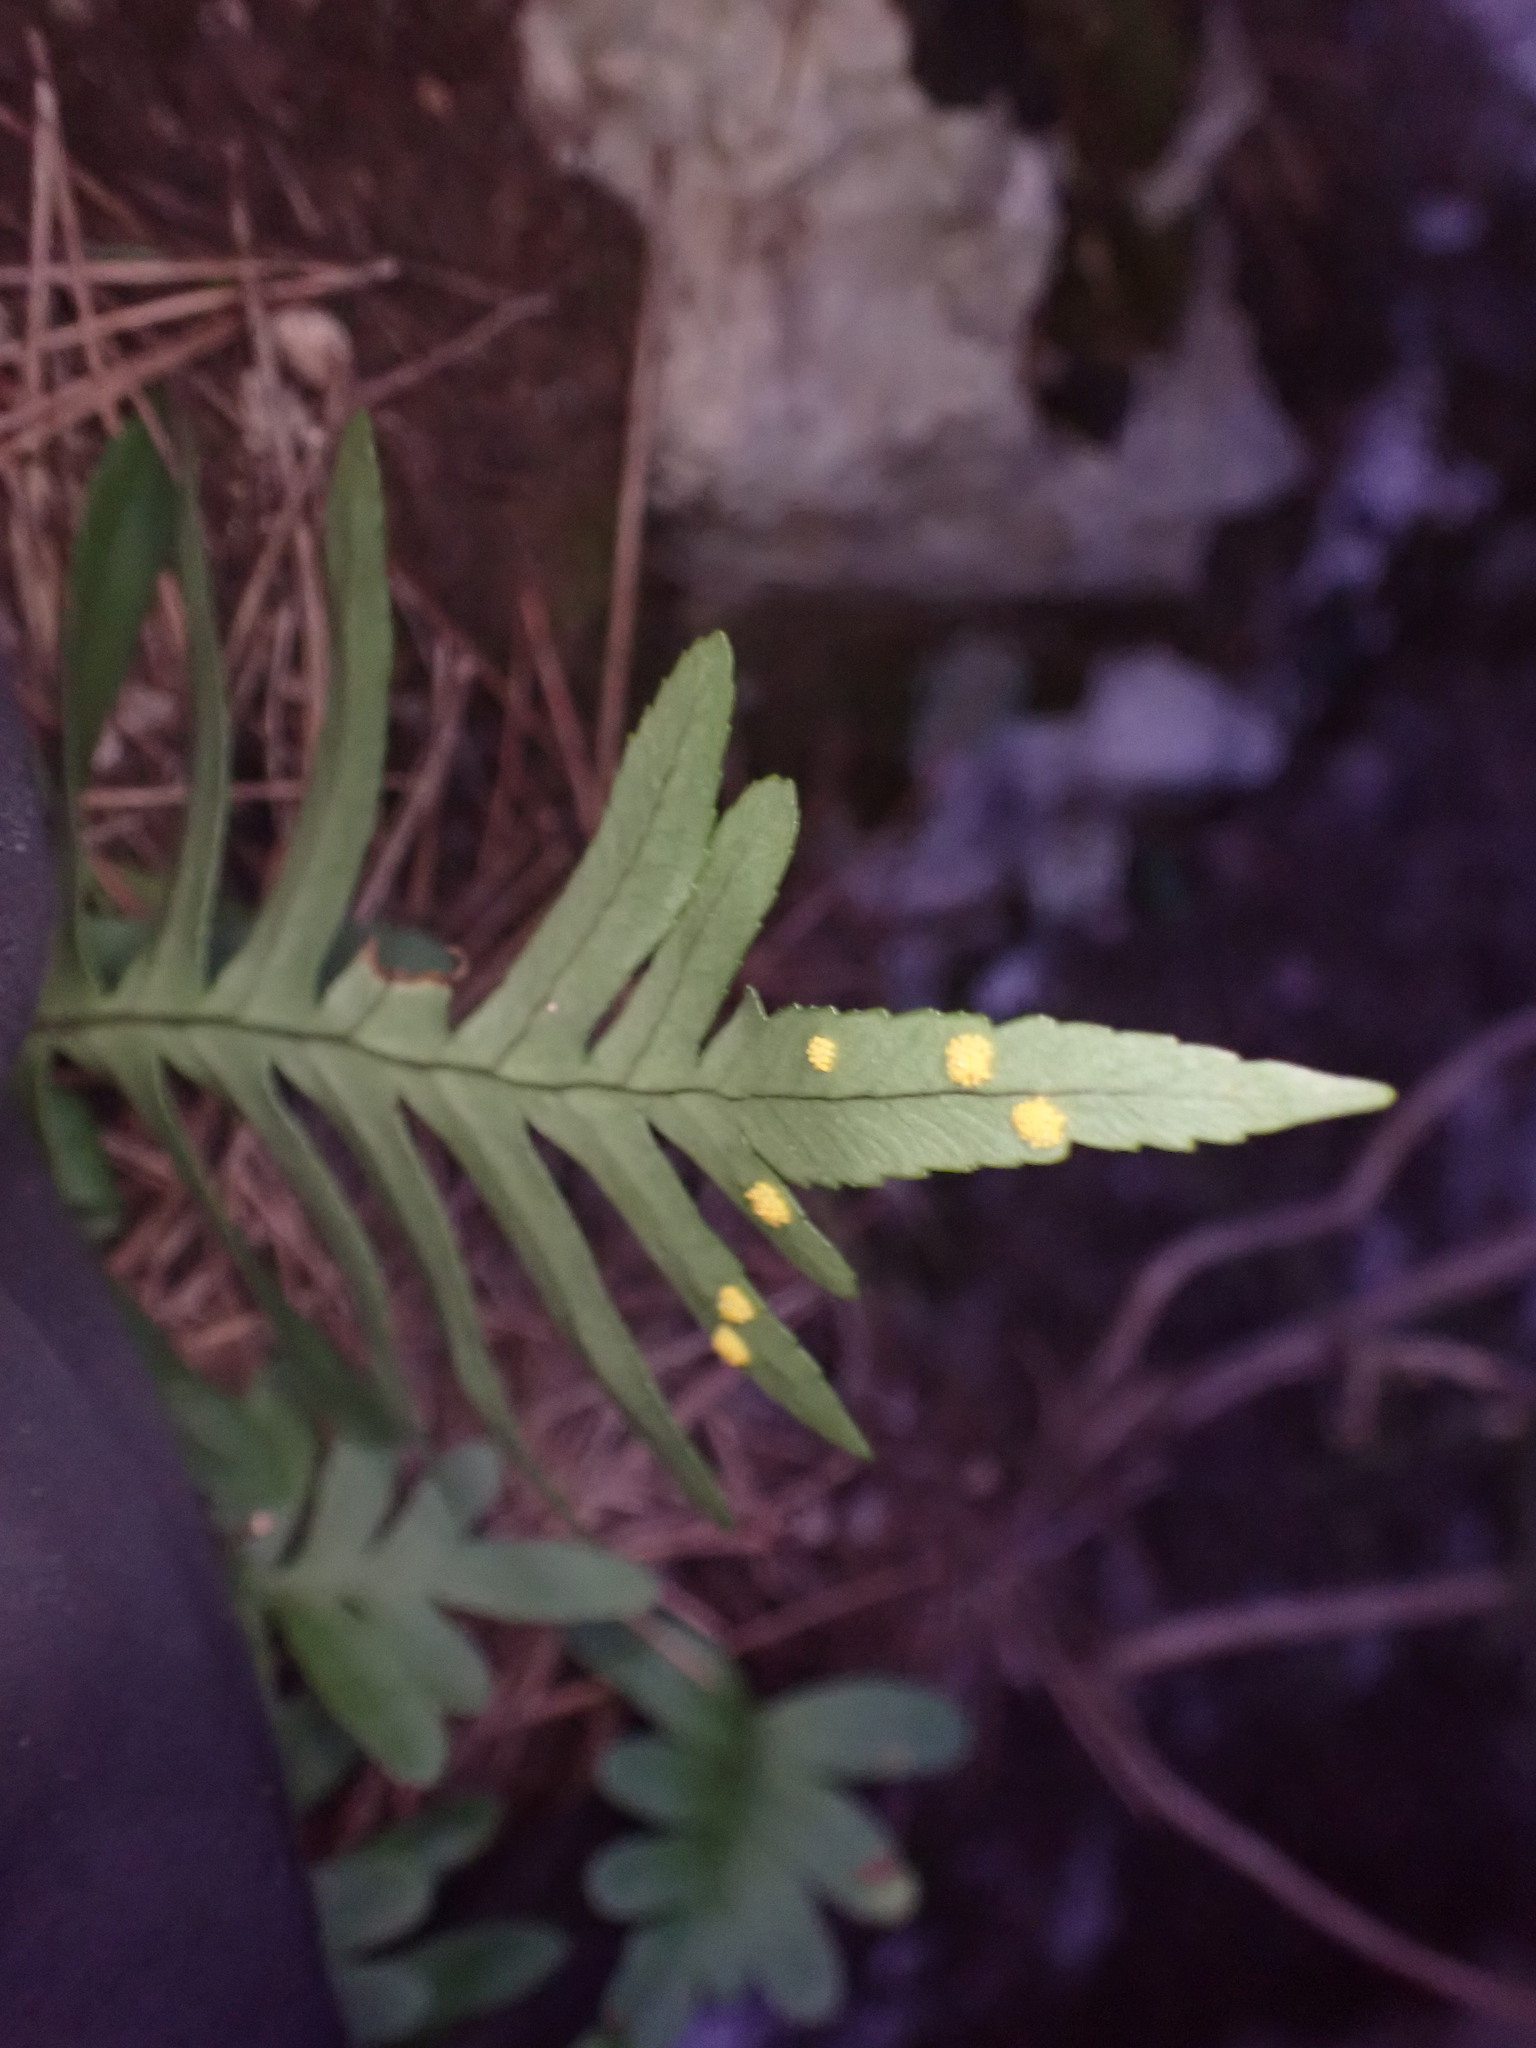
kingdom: Plantae
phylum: Tracheophyta
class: Polypodiopsida
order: Polypodiales
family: Polypodiaceae
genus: Polypodium
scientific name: Polypodium cambricum
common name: Southern polypody
